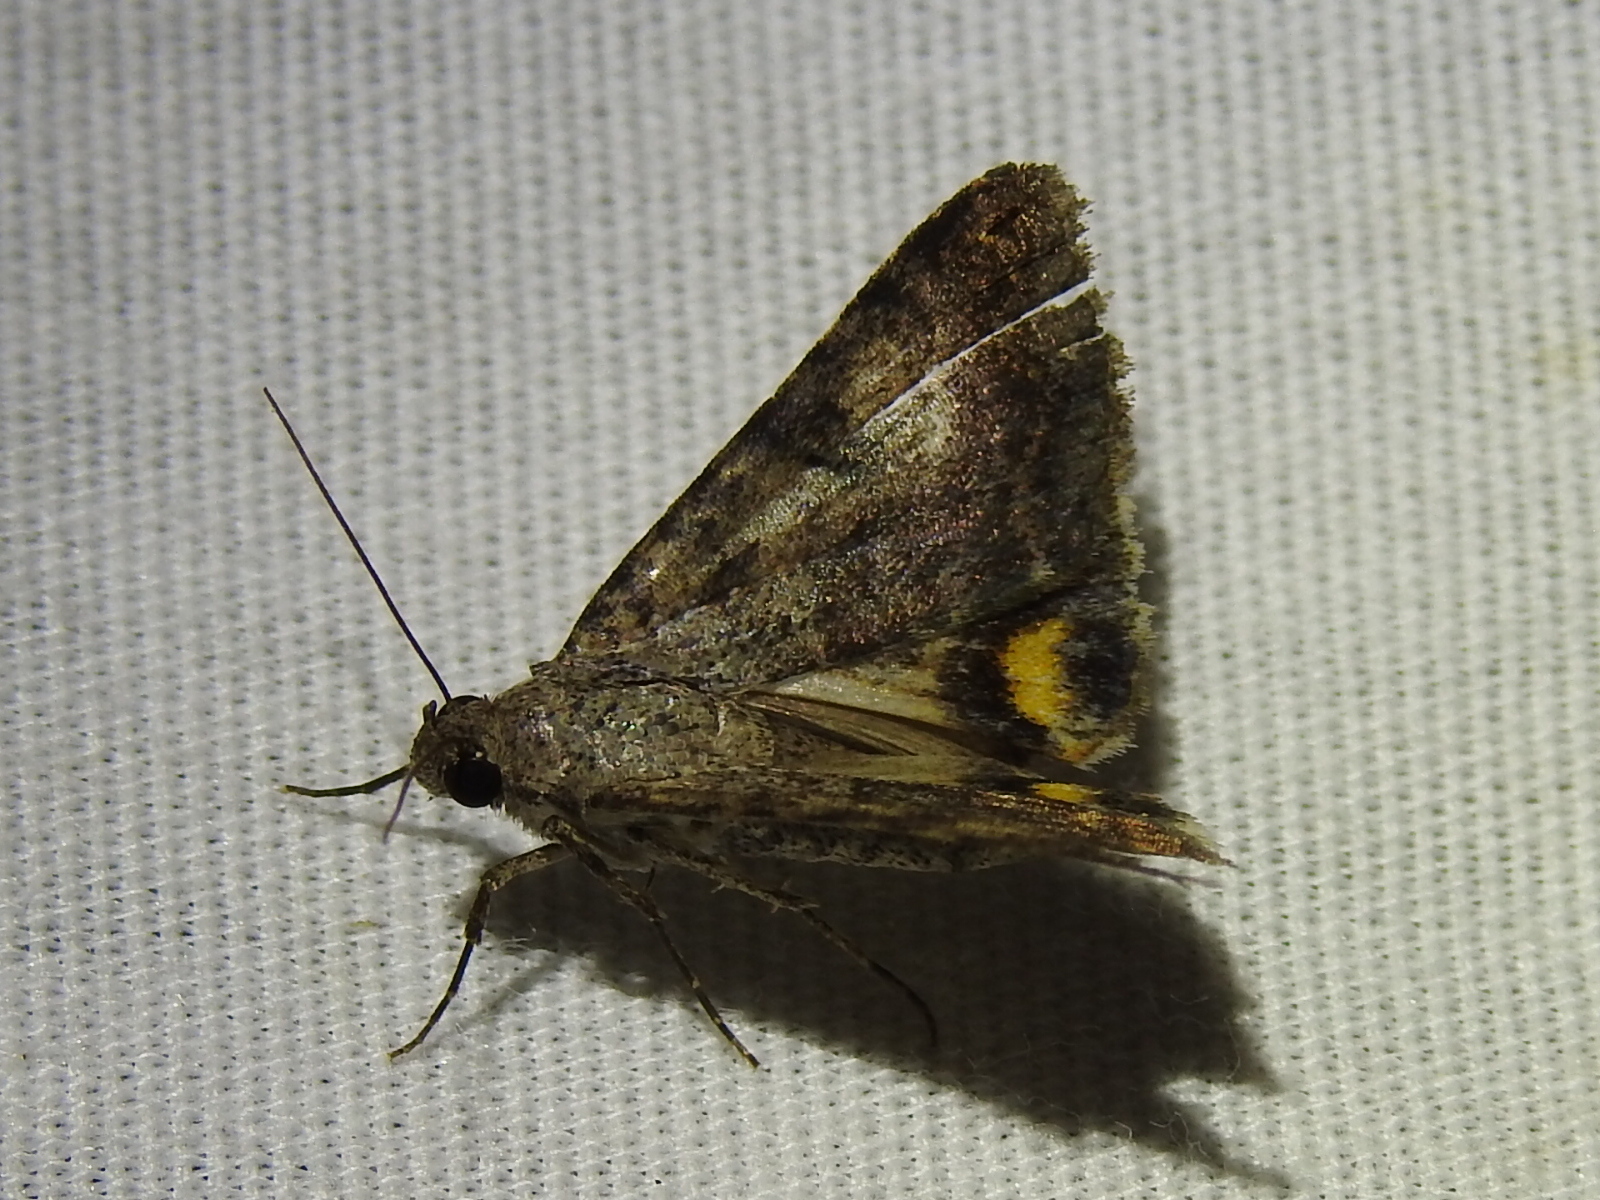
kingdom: Animalia
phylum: Arthropoda
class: Insecta
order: Lepidoptera
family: Erebidae
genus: Bulia
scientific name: Bulia deducta
